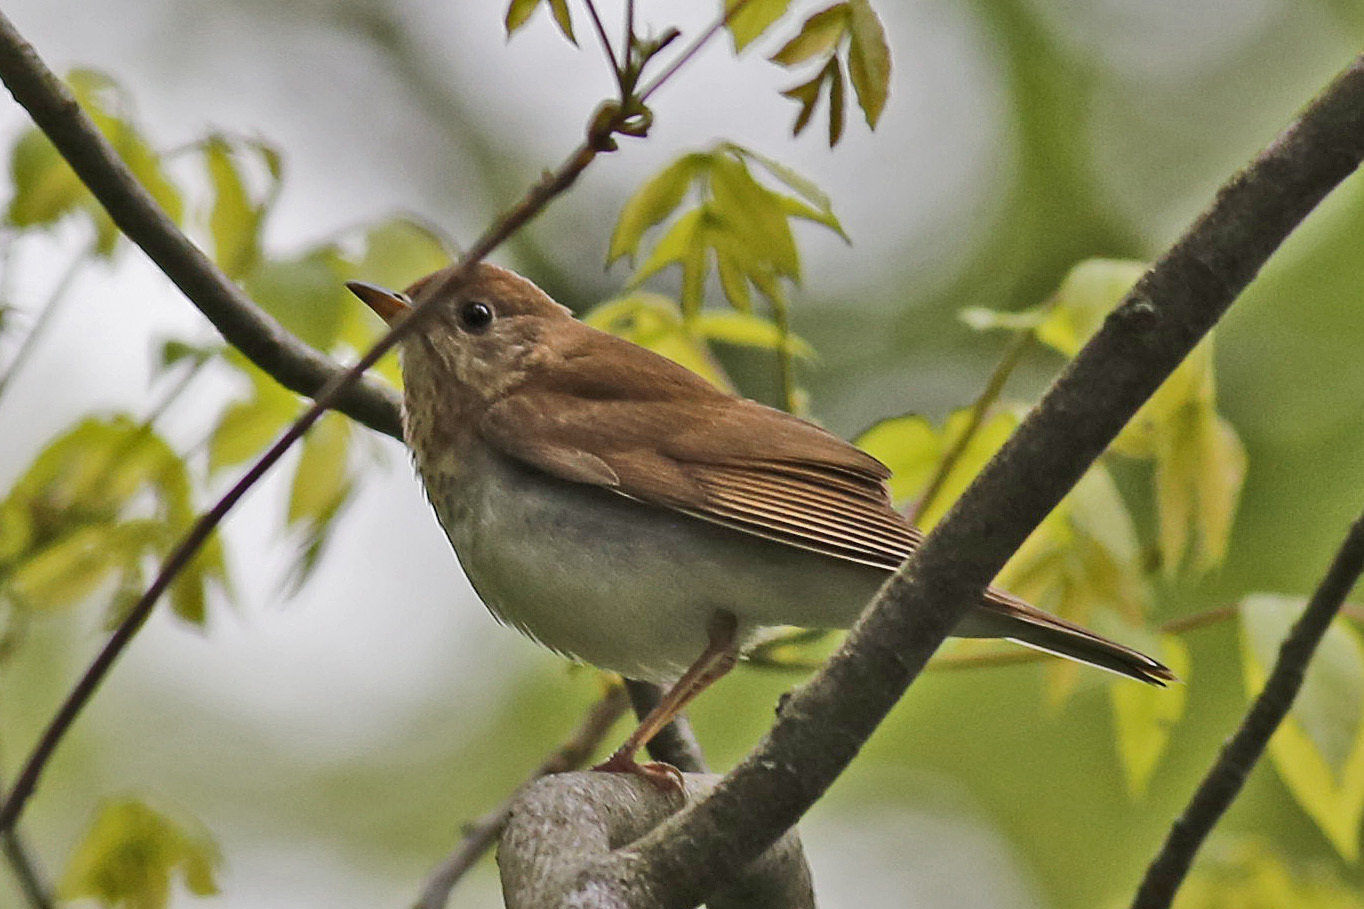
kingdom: Animalia
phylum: Chordata
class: Aves
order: Passeriformes
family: Turdidae
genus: Catharus
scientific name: Catharus fuscescens
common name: Veery
